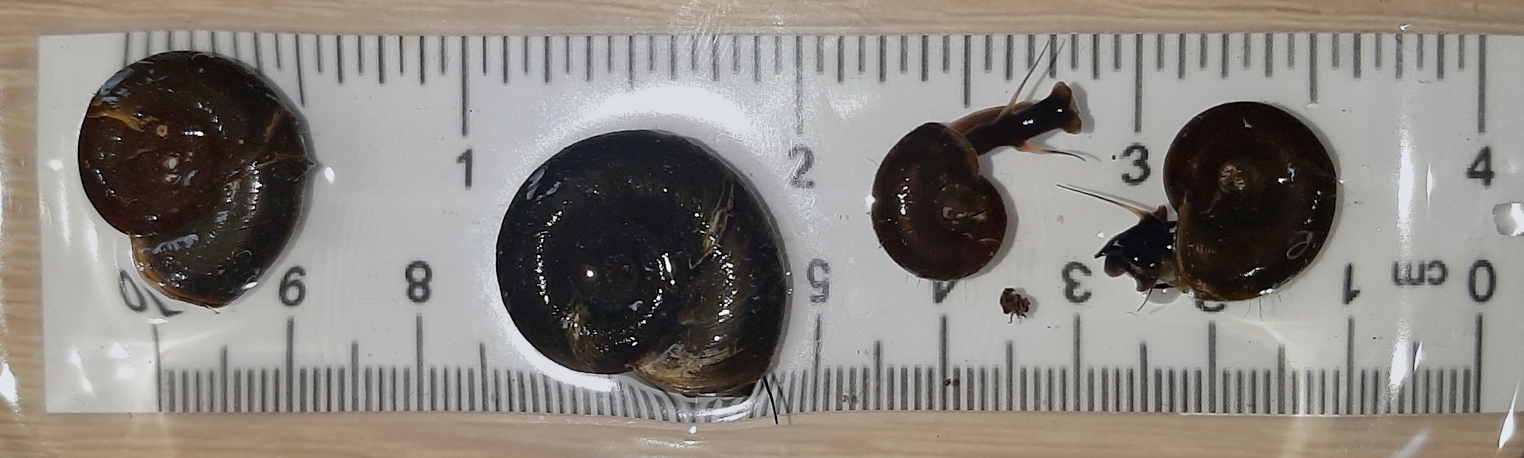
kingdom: Animalia
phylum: Mollusca
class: Gastropoda
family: Planorbidae
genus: Planorbarius
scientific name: Planorbarius corneus
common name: Great ramshorn
